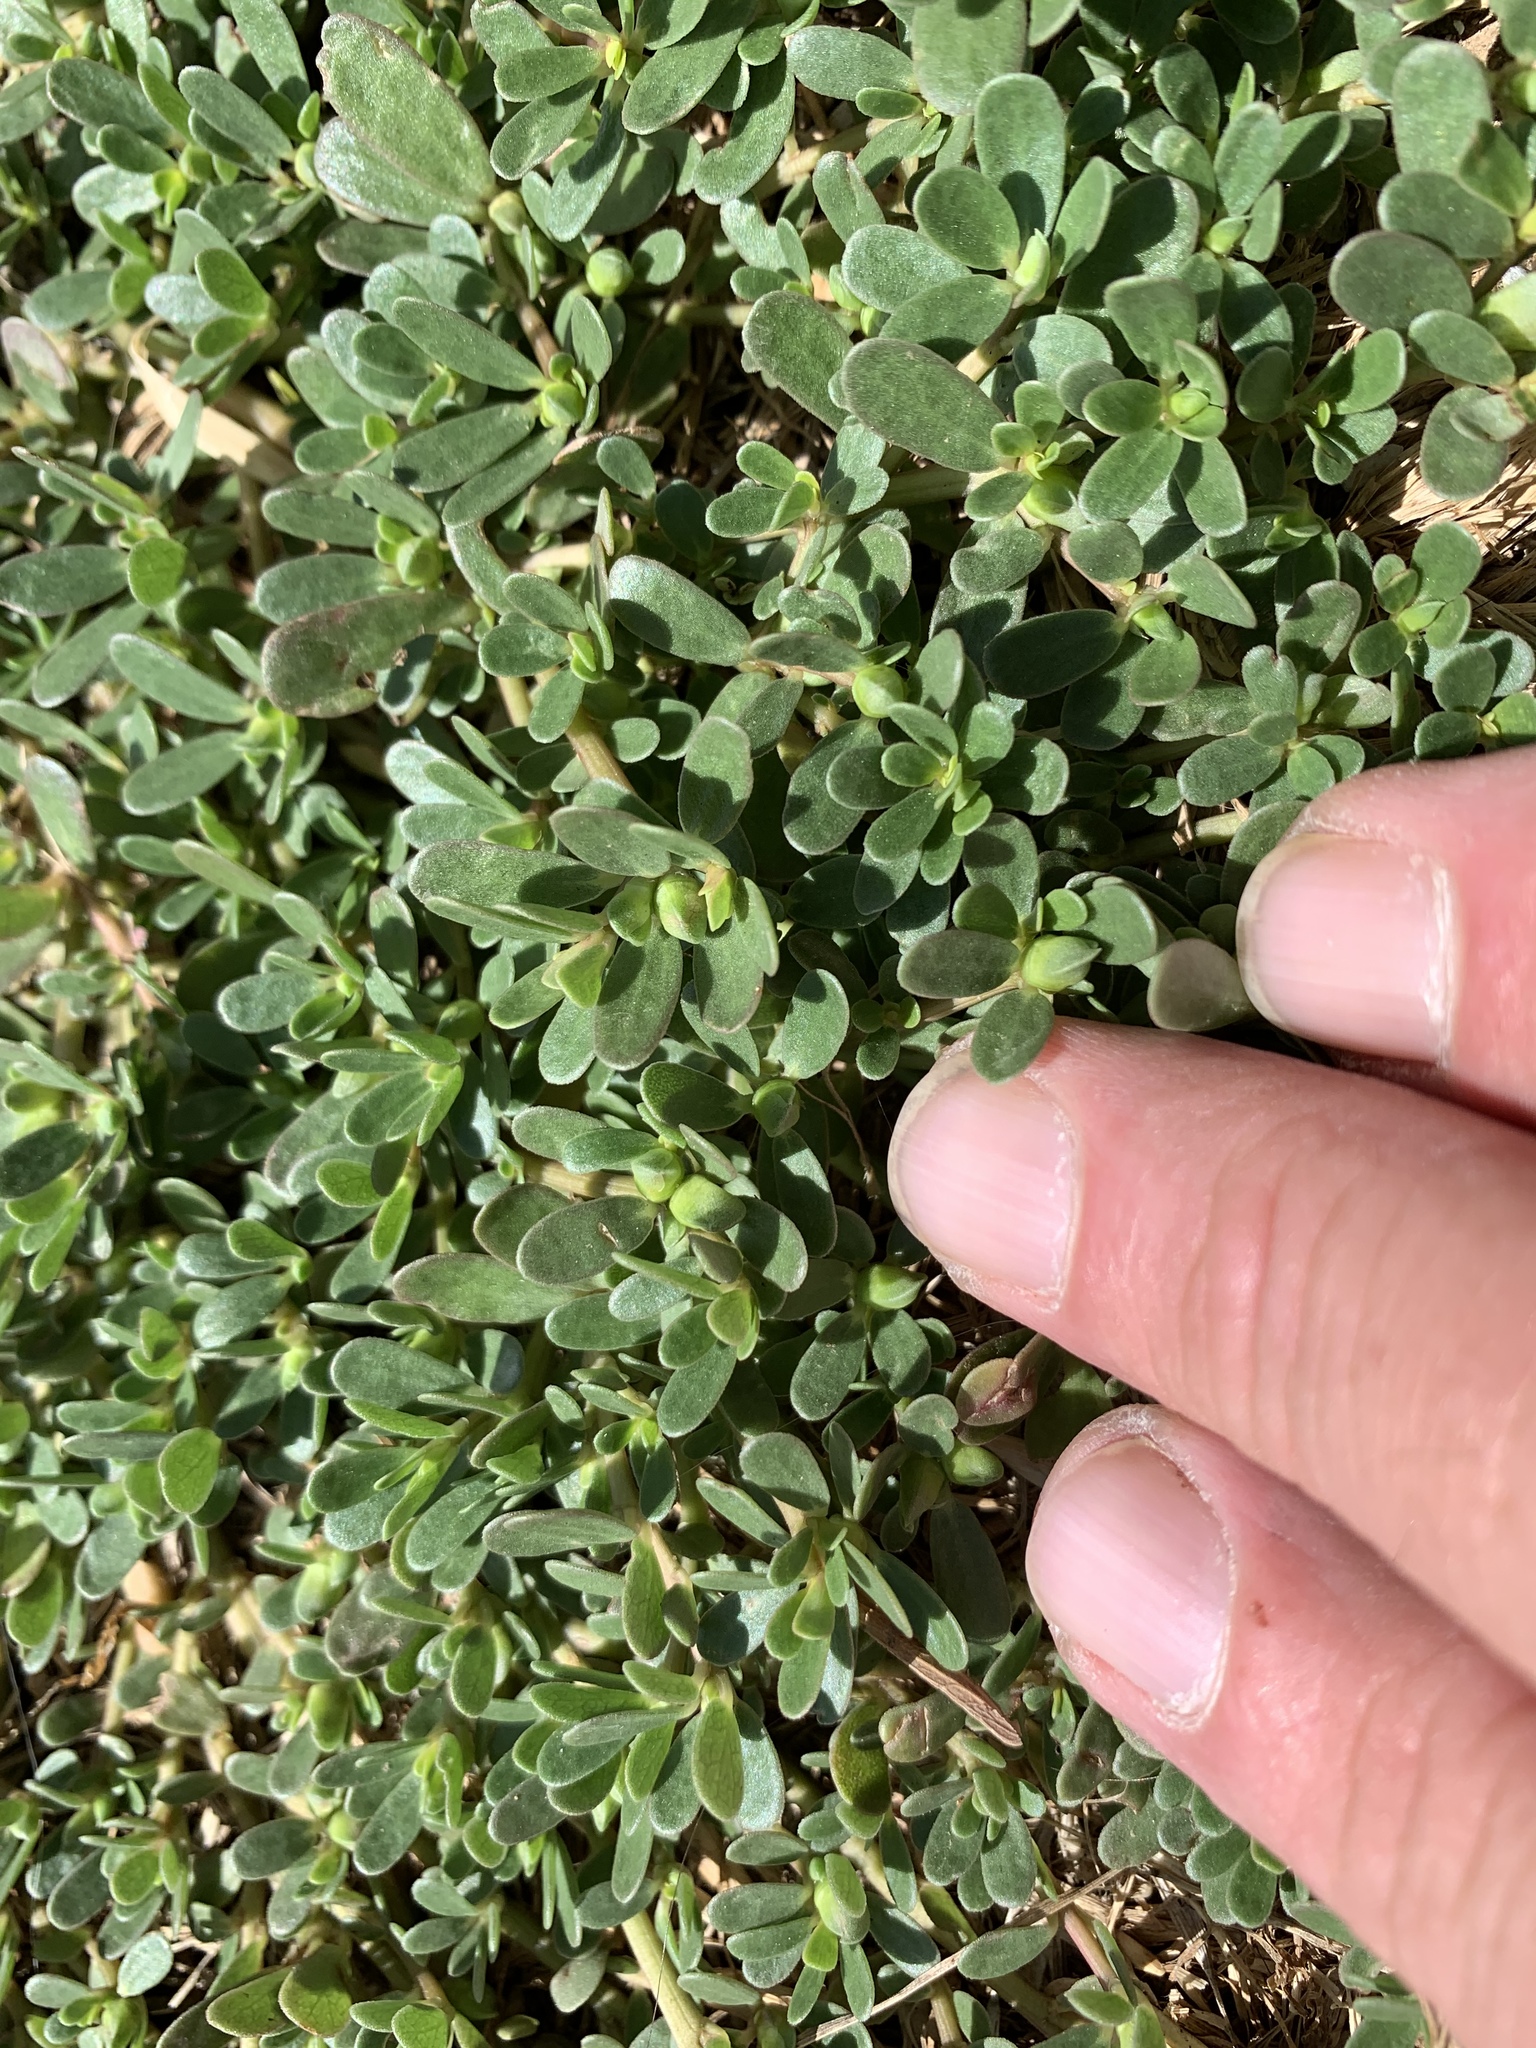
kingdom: Plantae
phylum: Tracheophyta
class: Magnoliopsida
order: Caryophyllales
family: Portulacaceae
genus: Portulaca
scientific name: Portulaca oleracea
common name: Common purslane
